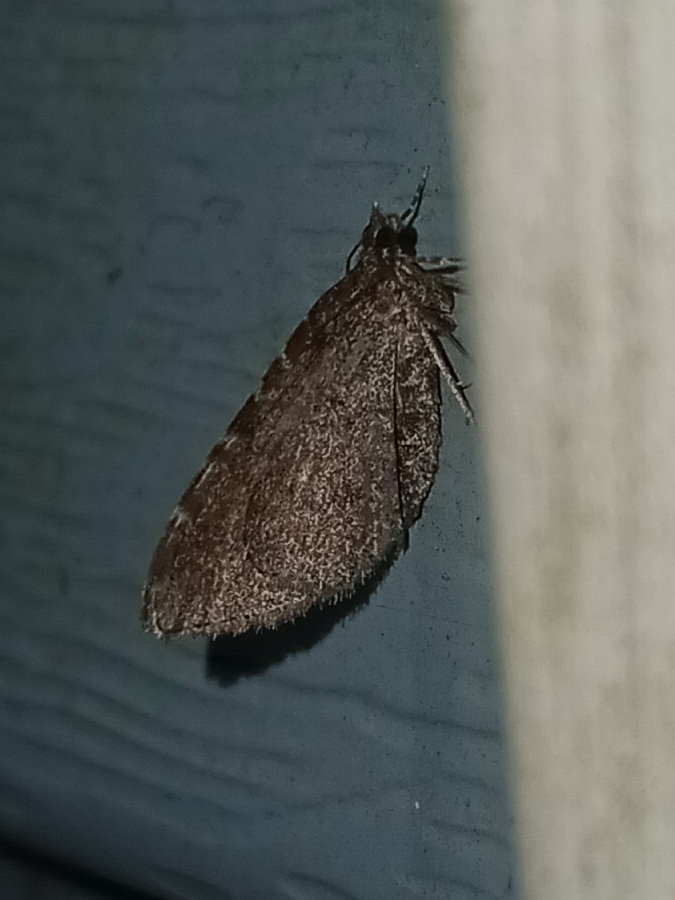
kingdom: Animalia
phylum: Arthropoda
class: Insecta
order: Lepidoptera
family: Geometridae
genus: Orthonama
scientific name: Orthonama obstipata
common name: The gem
